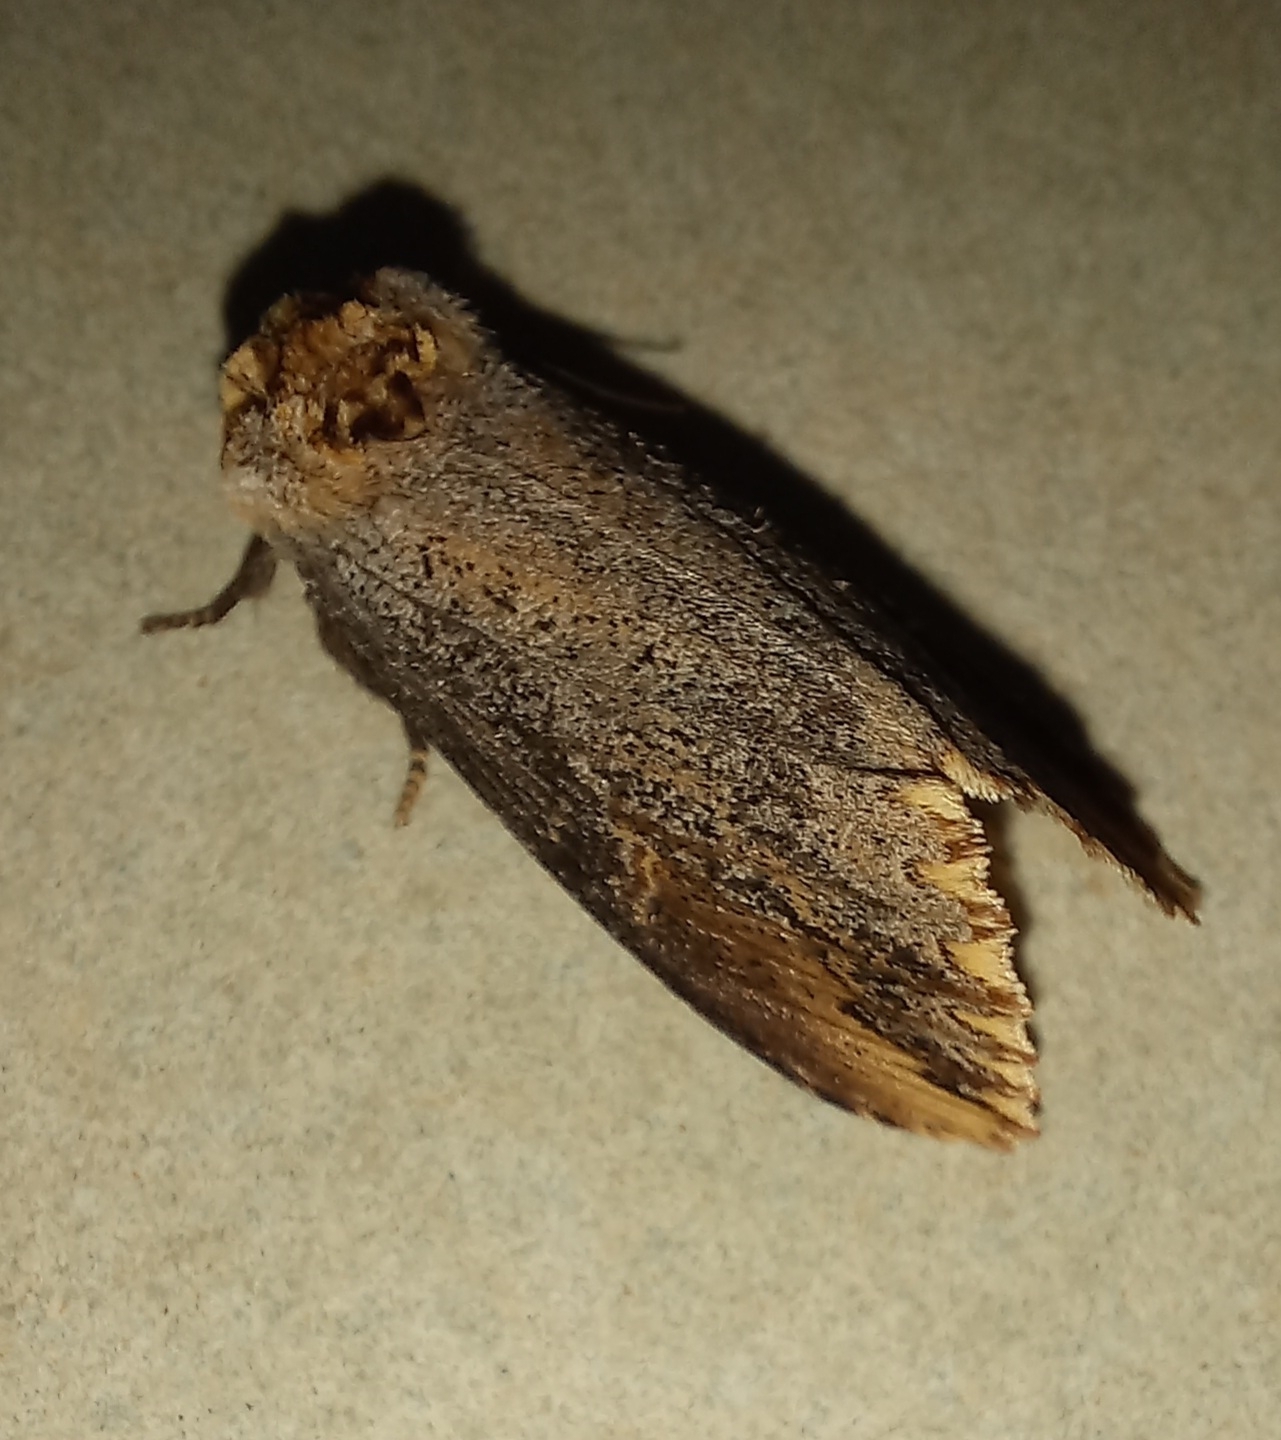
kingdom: Animalia
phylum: Arthropoda
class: Insecta
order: Lepidoptera
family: Noctuidae
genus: Brithys
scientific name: Brithys crini
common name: Kew arches
